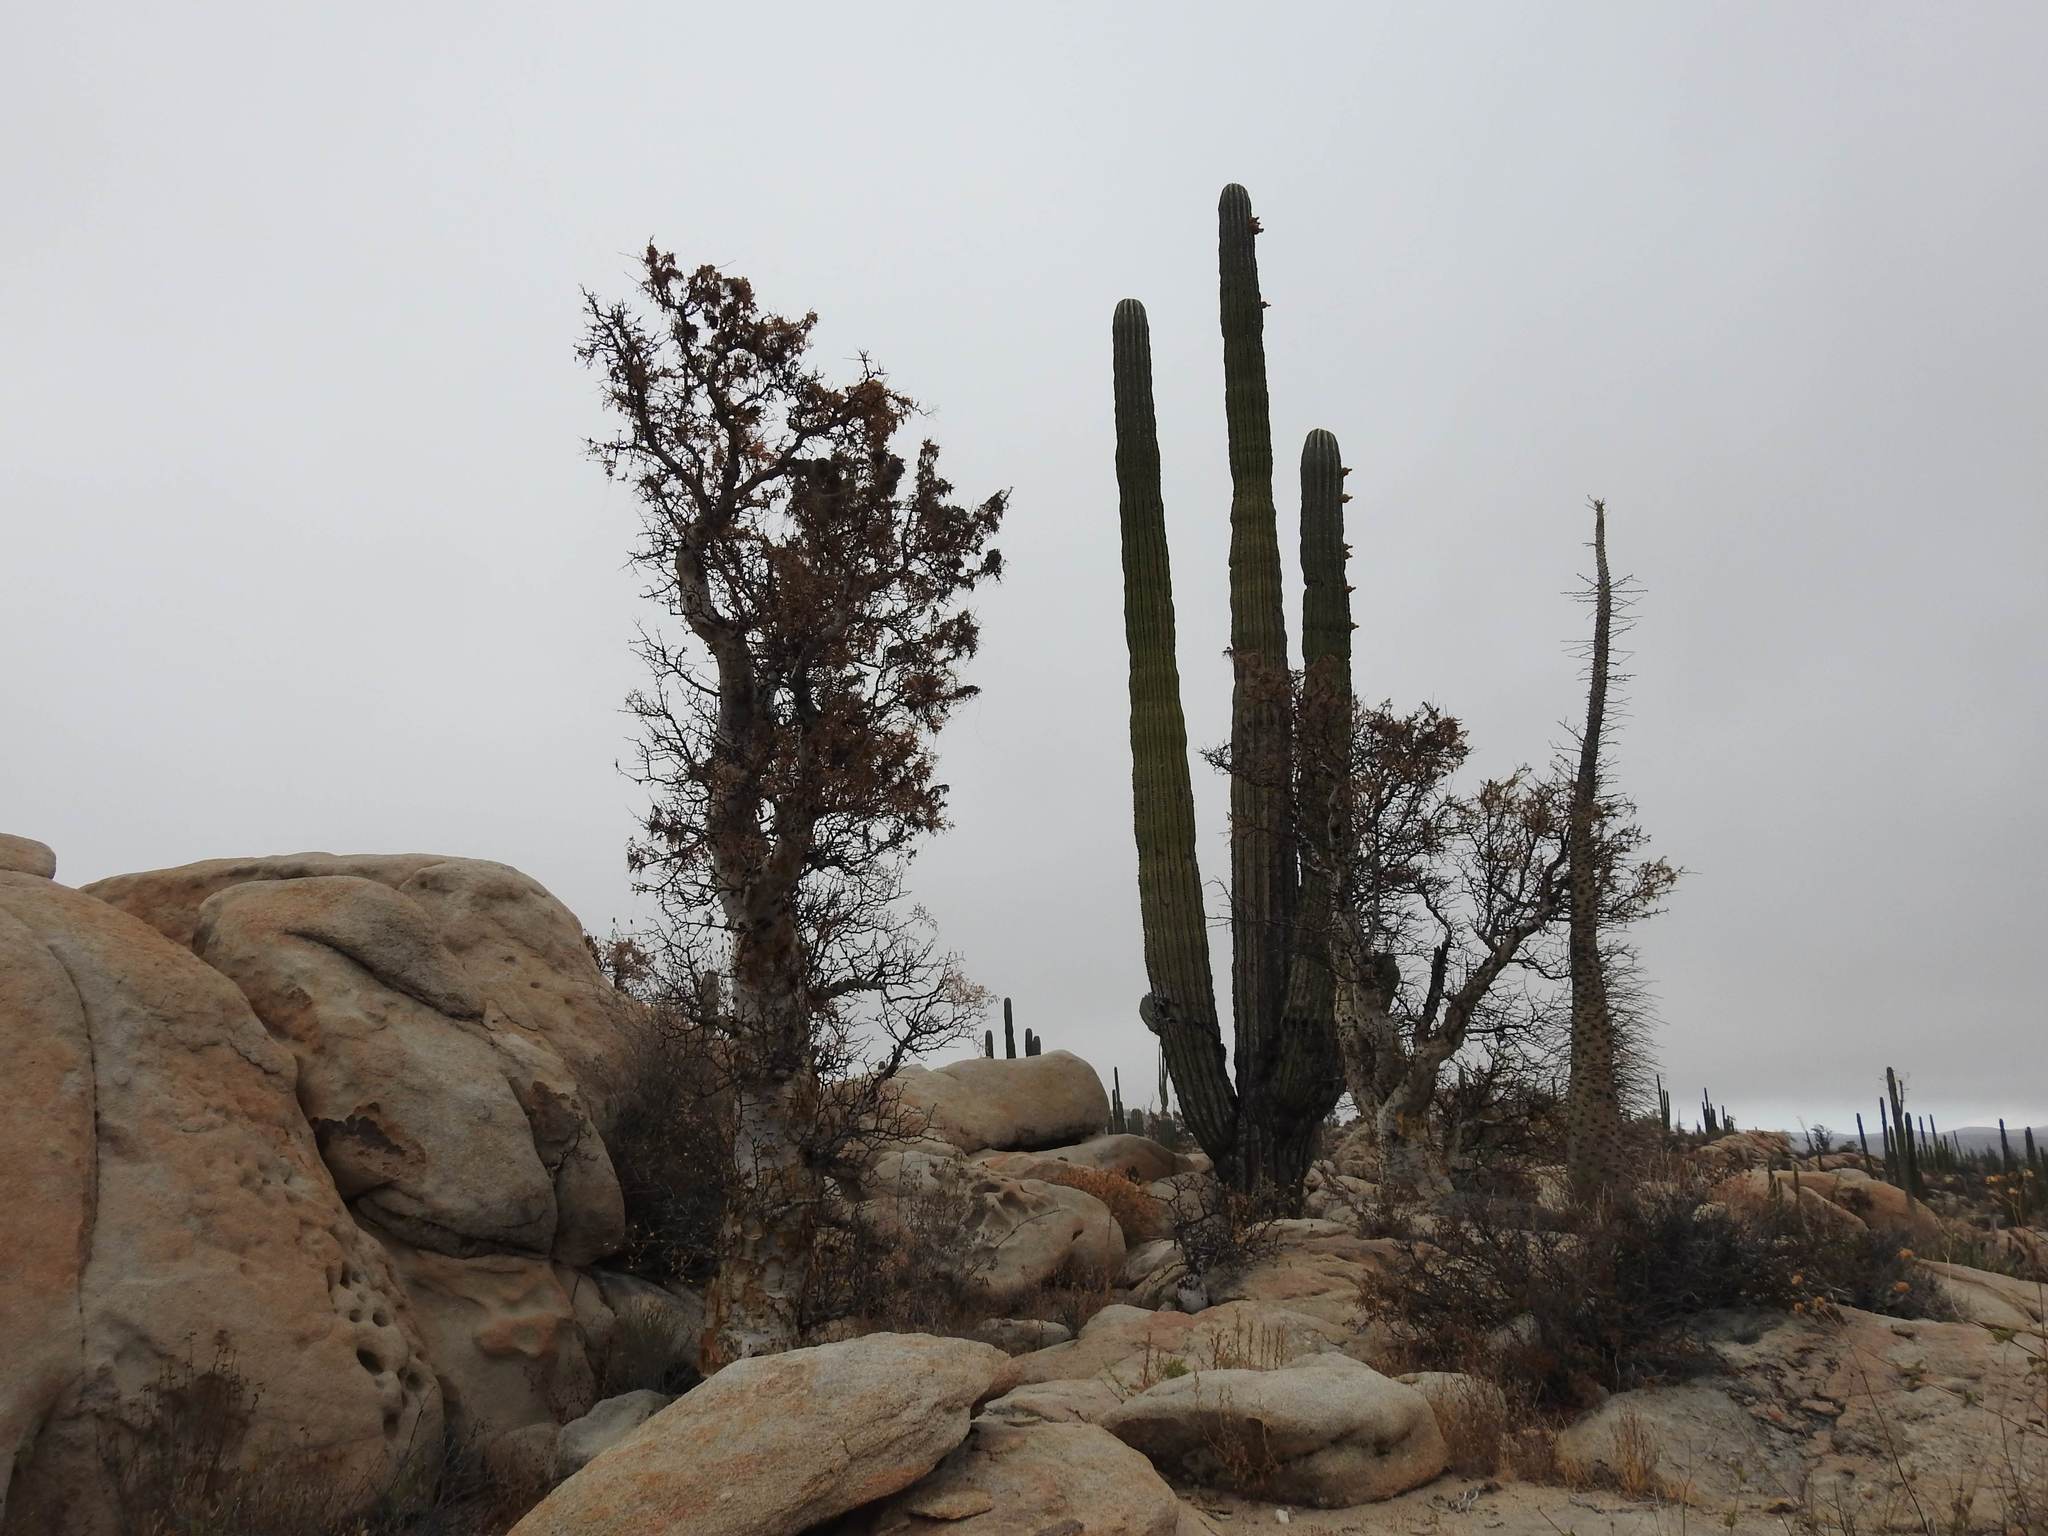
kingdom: Plantae
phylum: Tracheophyta
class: Magnoliopsida
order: Caryophyllales
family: Cactaceae
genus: Pachycereus
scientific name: Pachycereus pringlei
